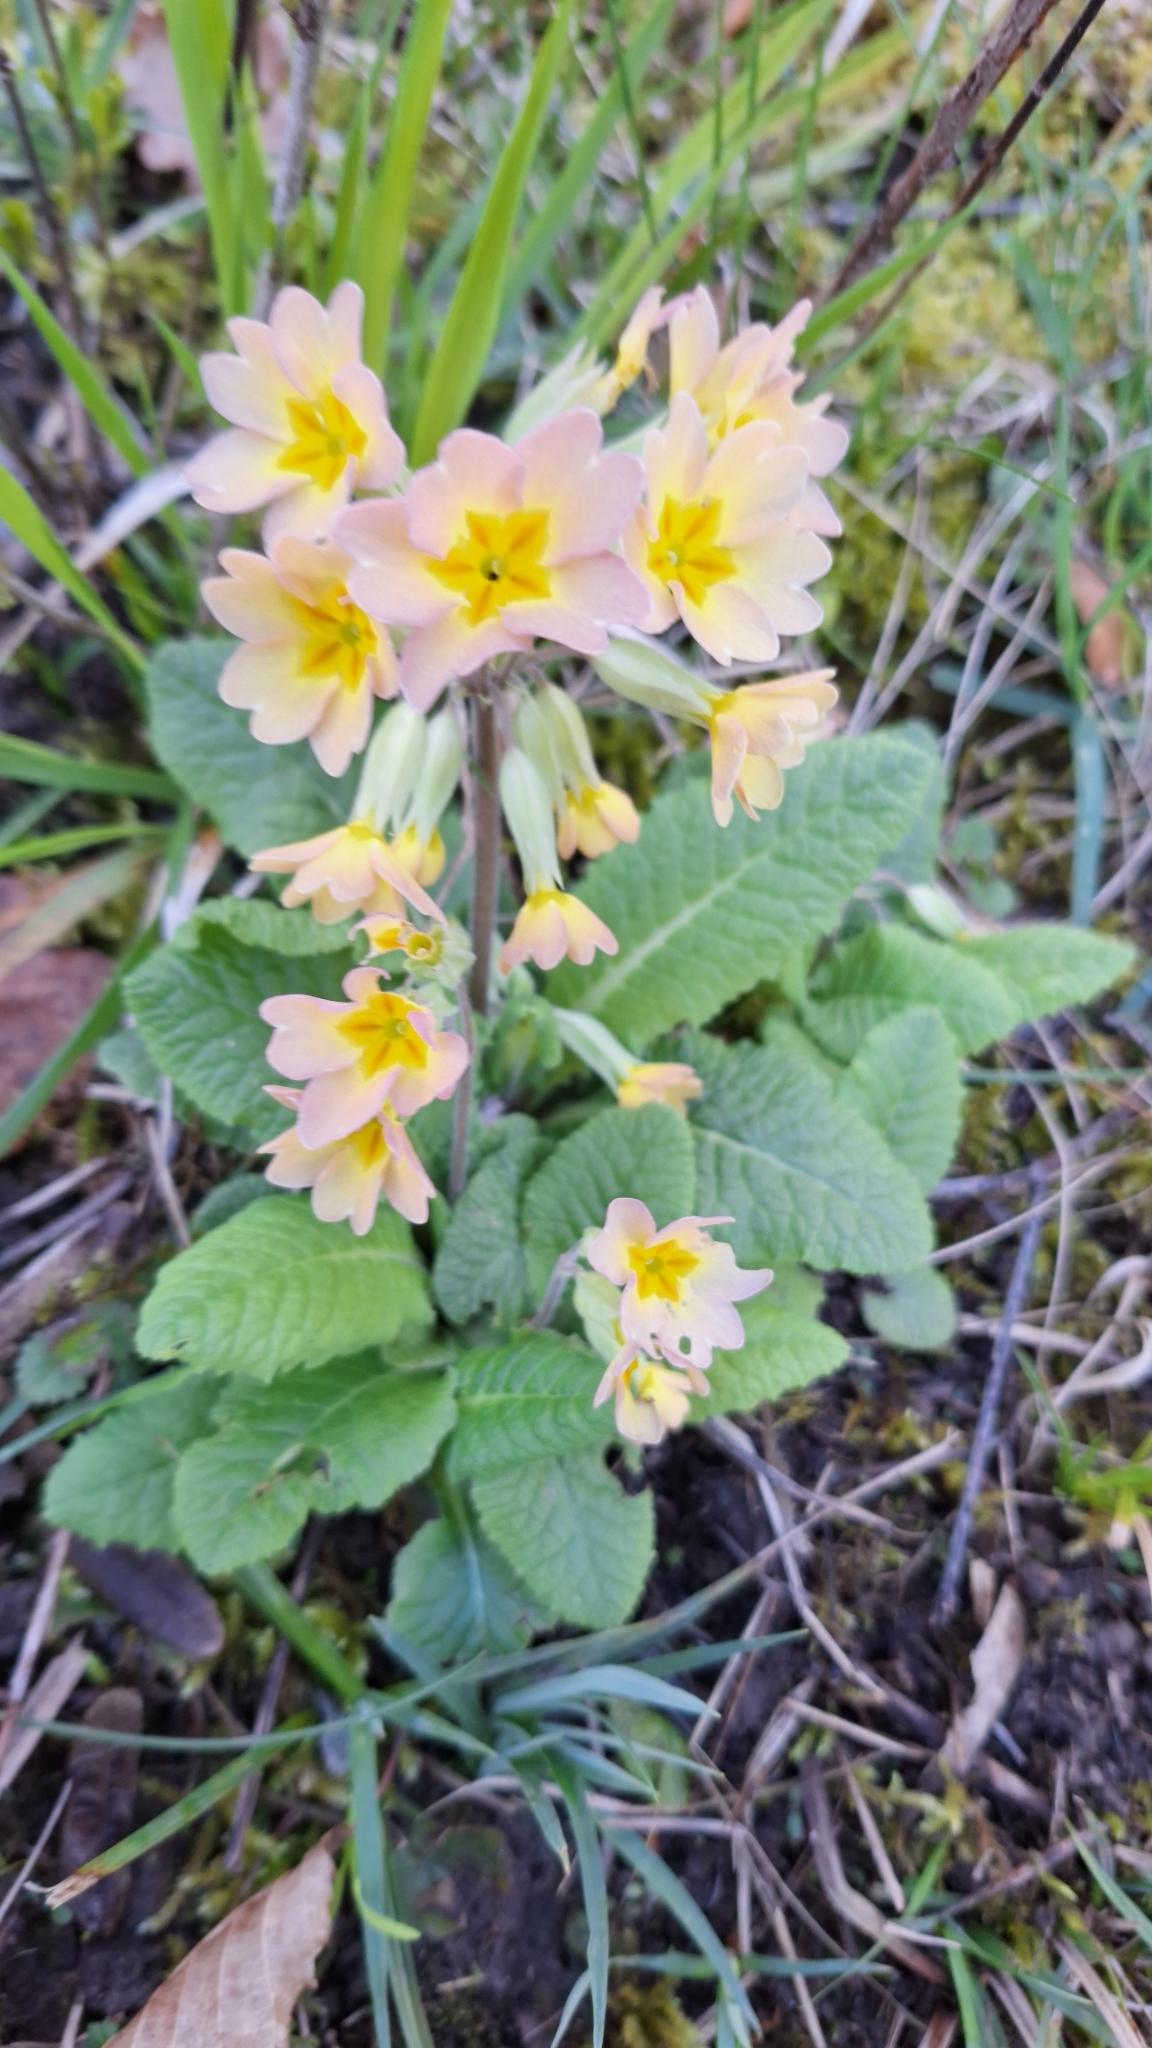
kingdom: Plantae
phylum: Tracheophyta
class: Magnoliopsida
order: Ericales
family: Primulaceae
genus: Primula
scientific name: Primula polyantha
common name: False oxlip
